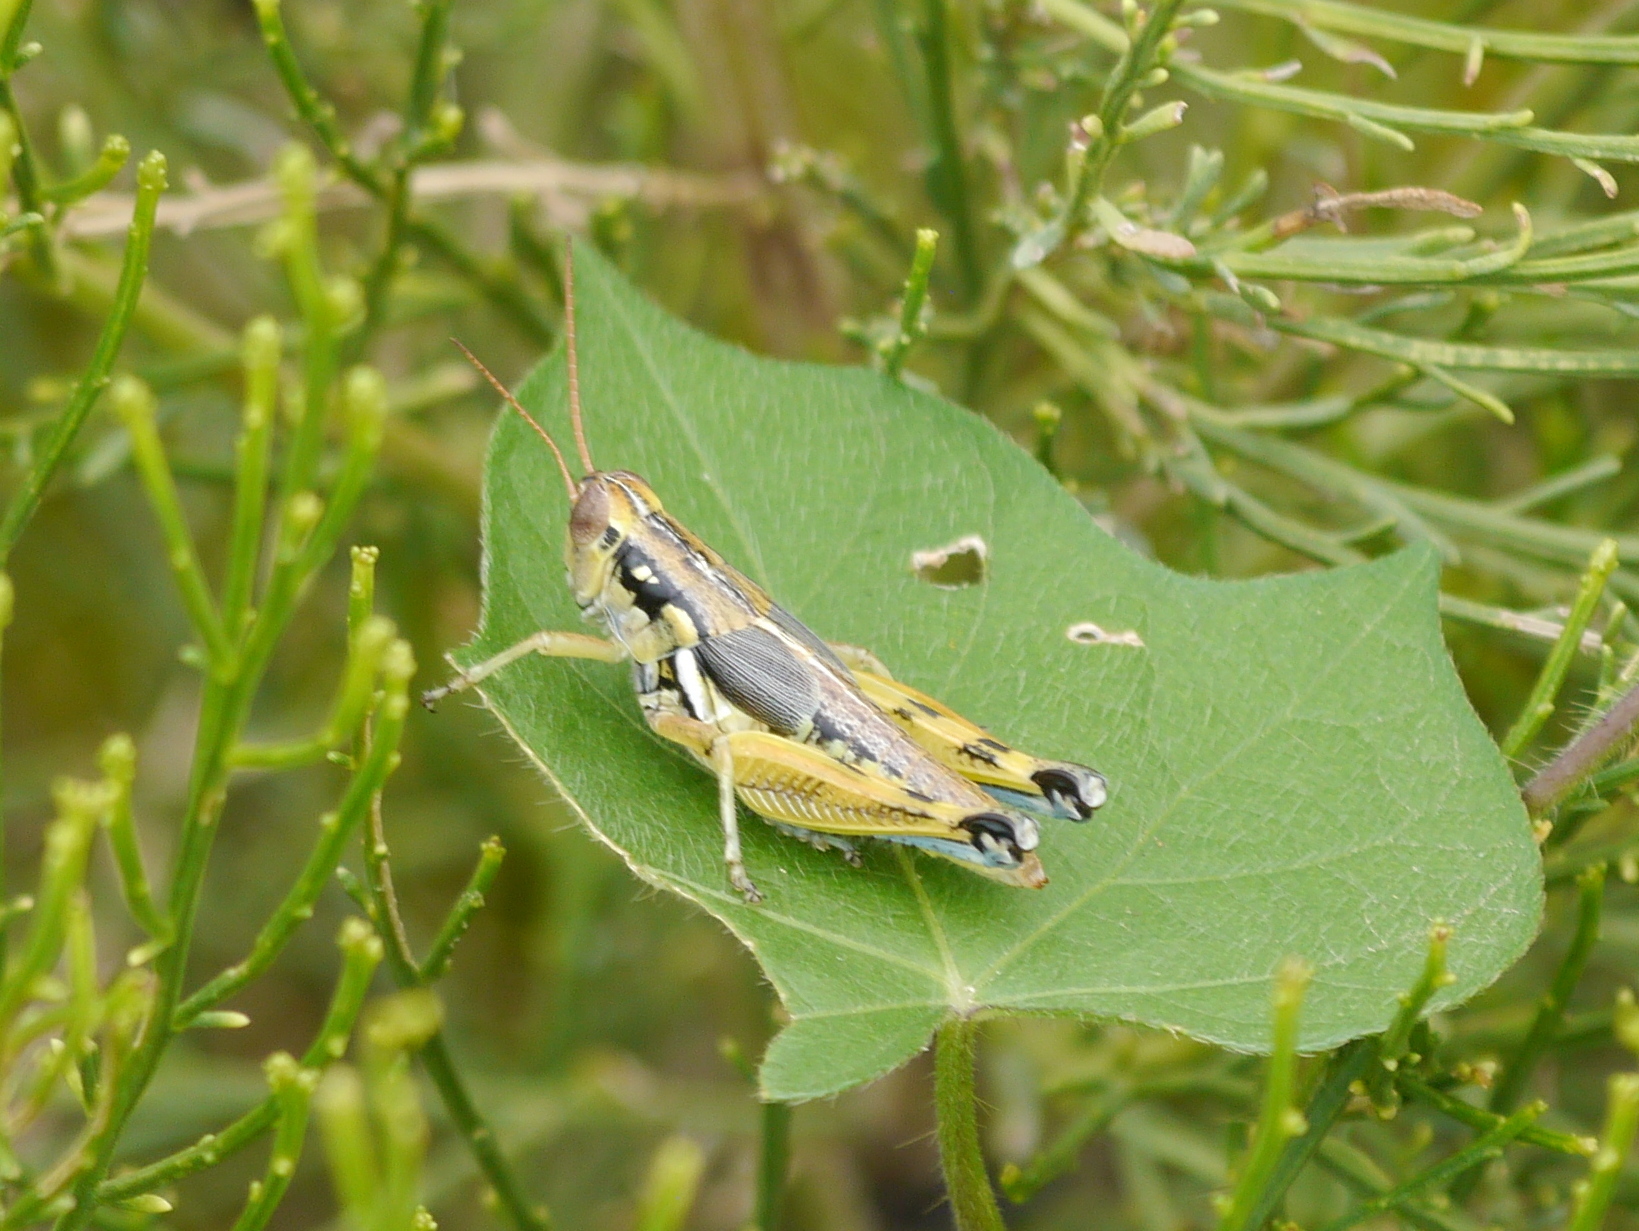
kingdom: Animalia
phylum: Arthropoda
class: Insecta
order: Orthoptera
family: Acrididae
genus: Melanoplus
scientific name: Melanoplus aridus
